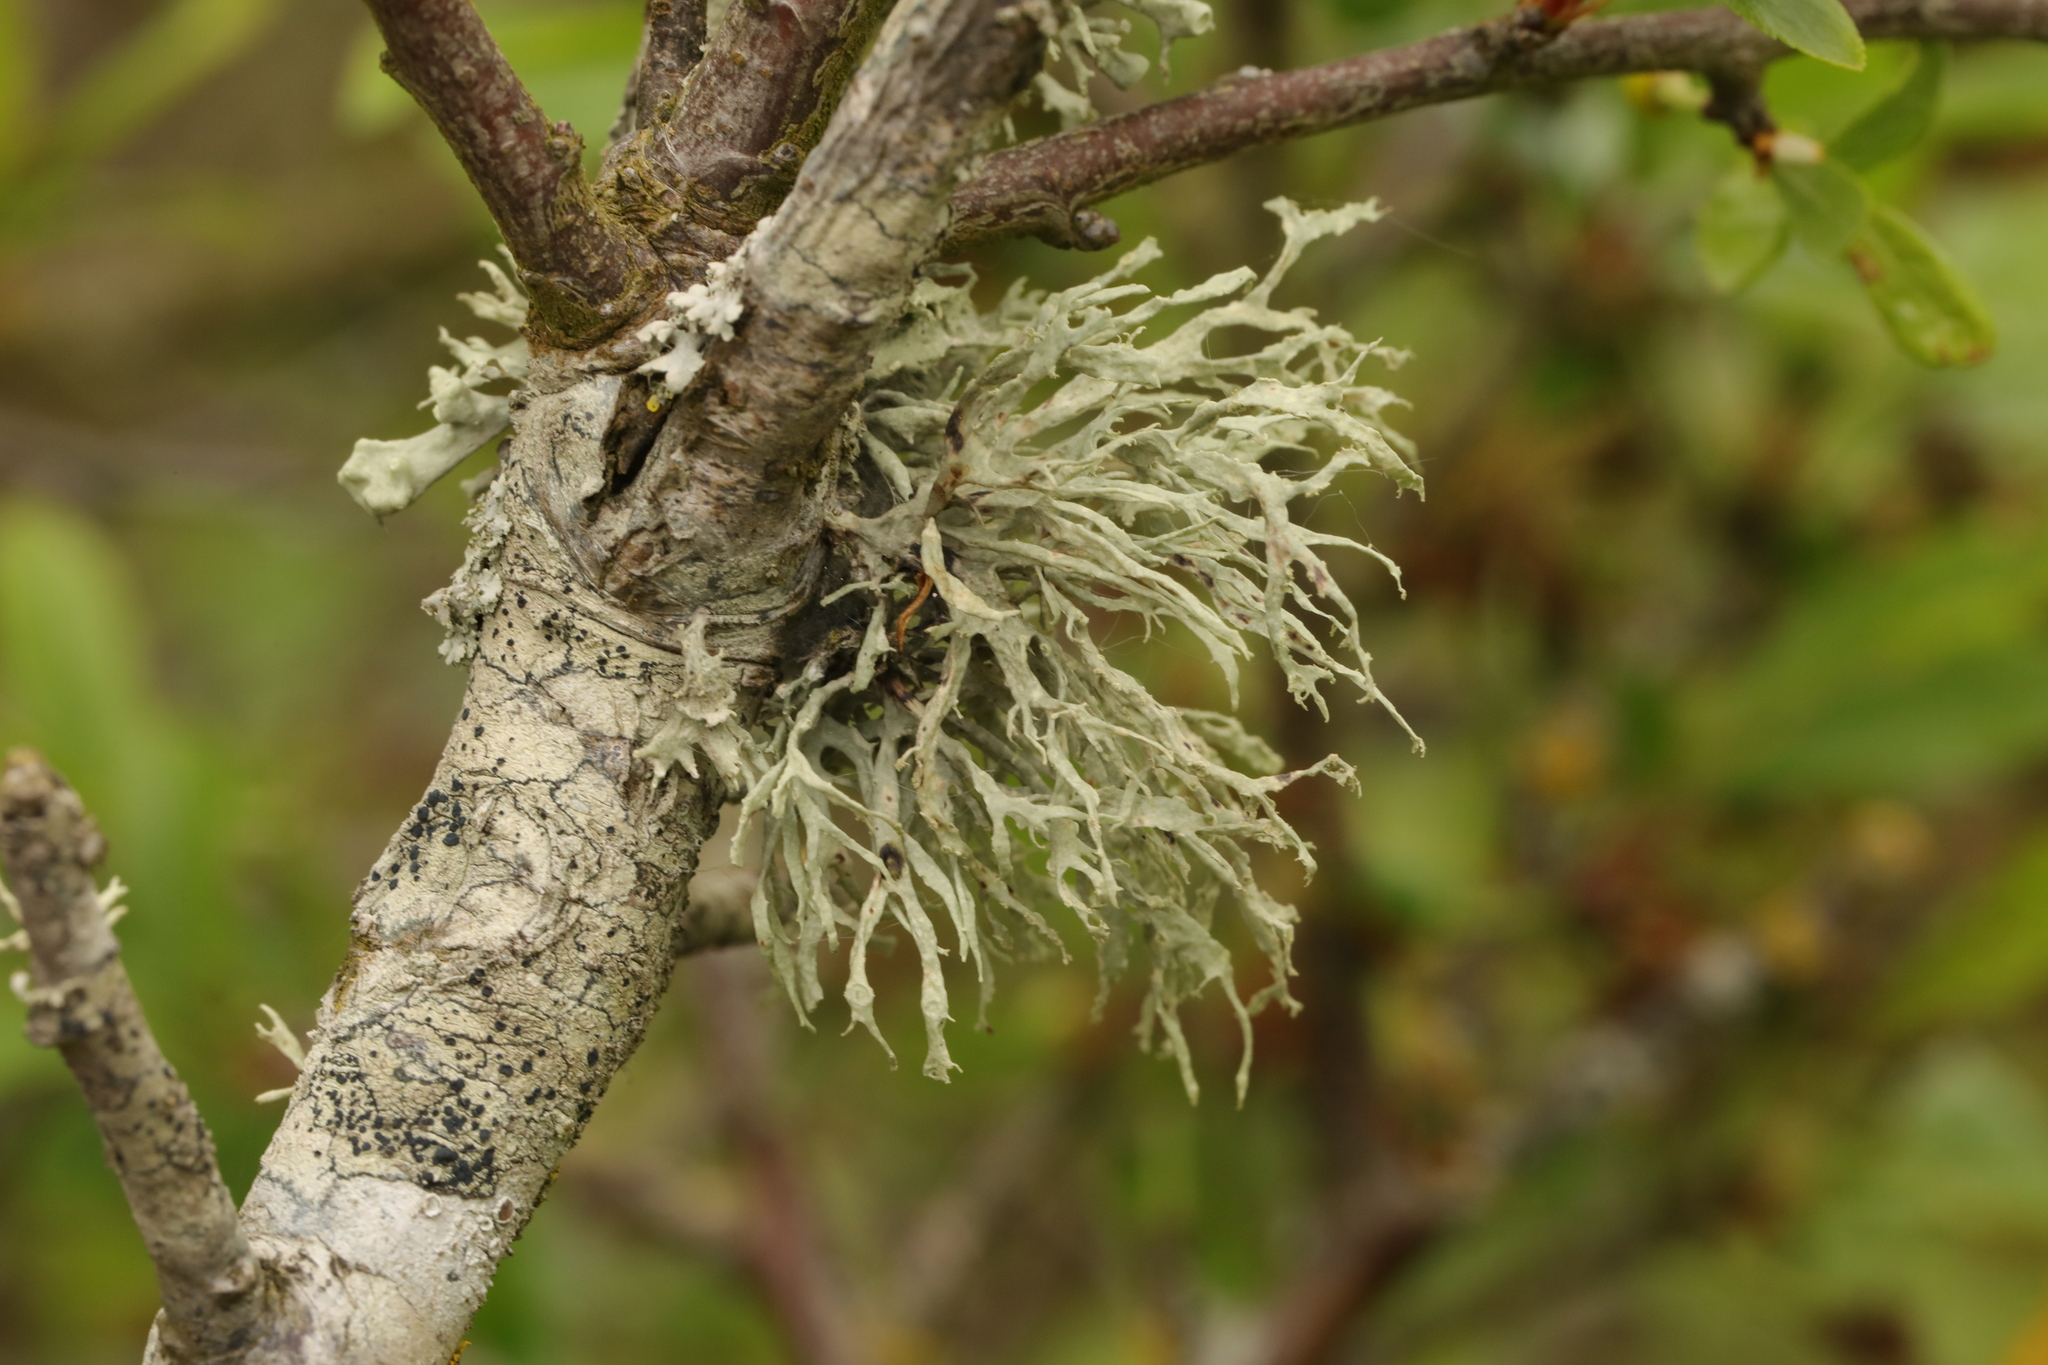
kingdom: Fungi
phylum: Ascomycota
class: Lecanoromycetes
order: Lecanorales
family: Ramalinaceae
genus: Ramalina
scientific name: Ramalina farinacea
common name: Farinose cartilage lichen
